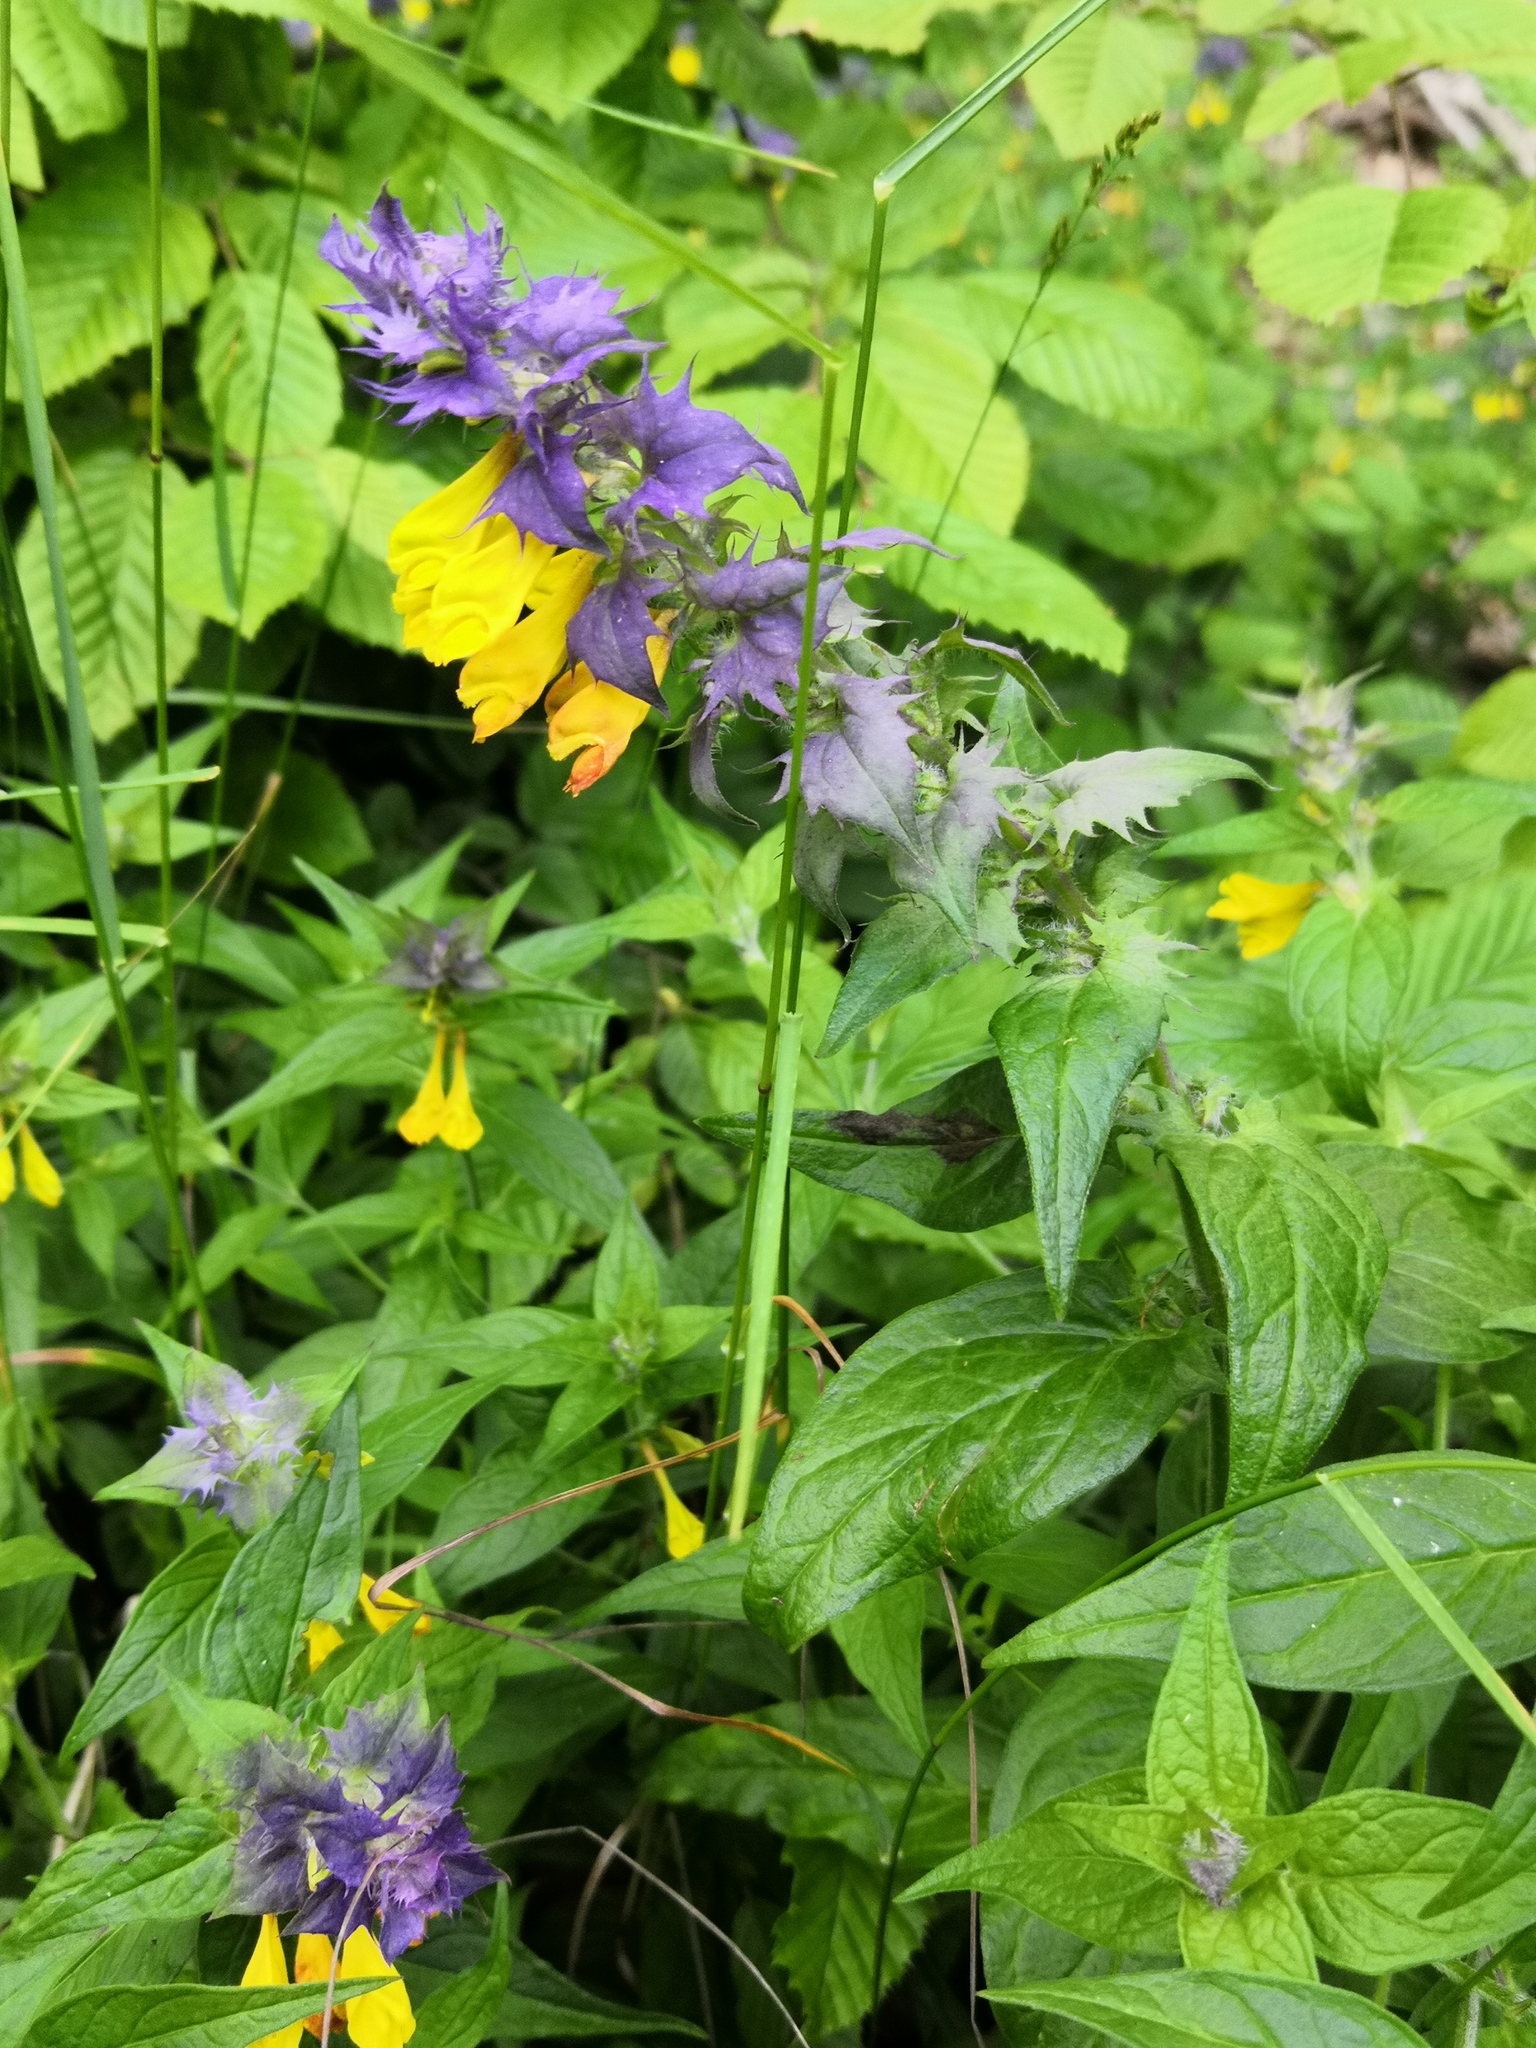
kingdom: Plantae
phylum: Tracheophyta
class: Magnoliopsida
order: Lamiales
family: Orobanchaceae
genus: Melampyrum
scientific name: Melampyrum nemorosum
